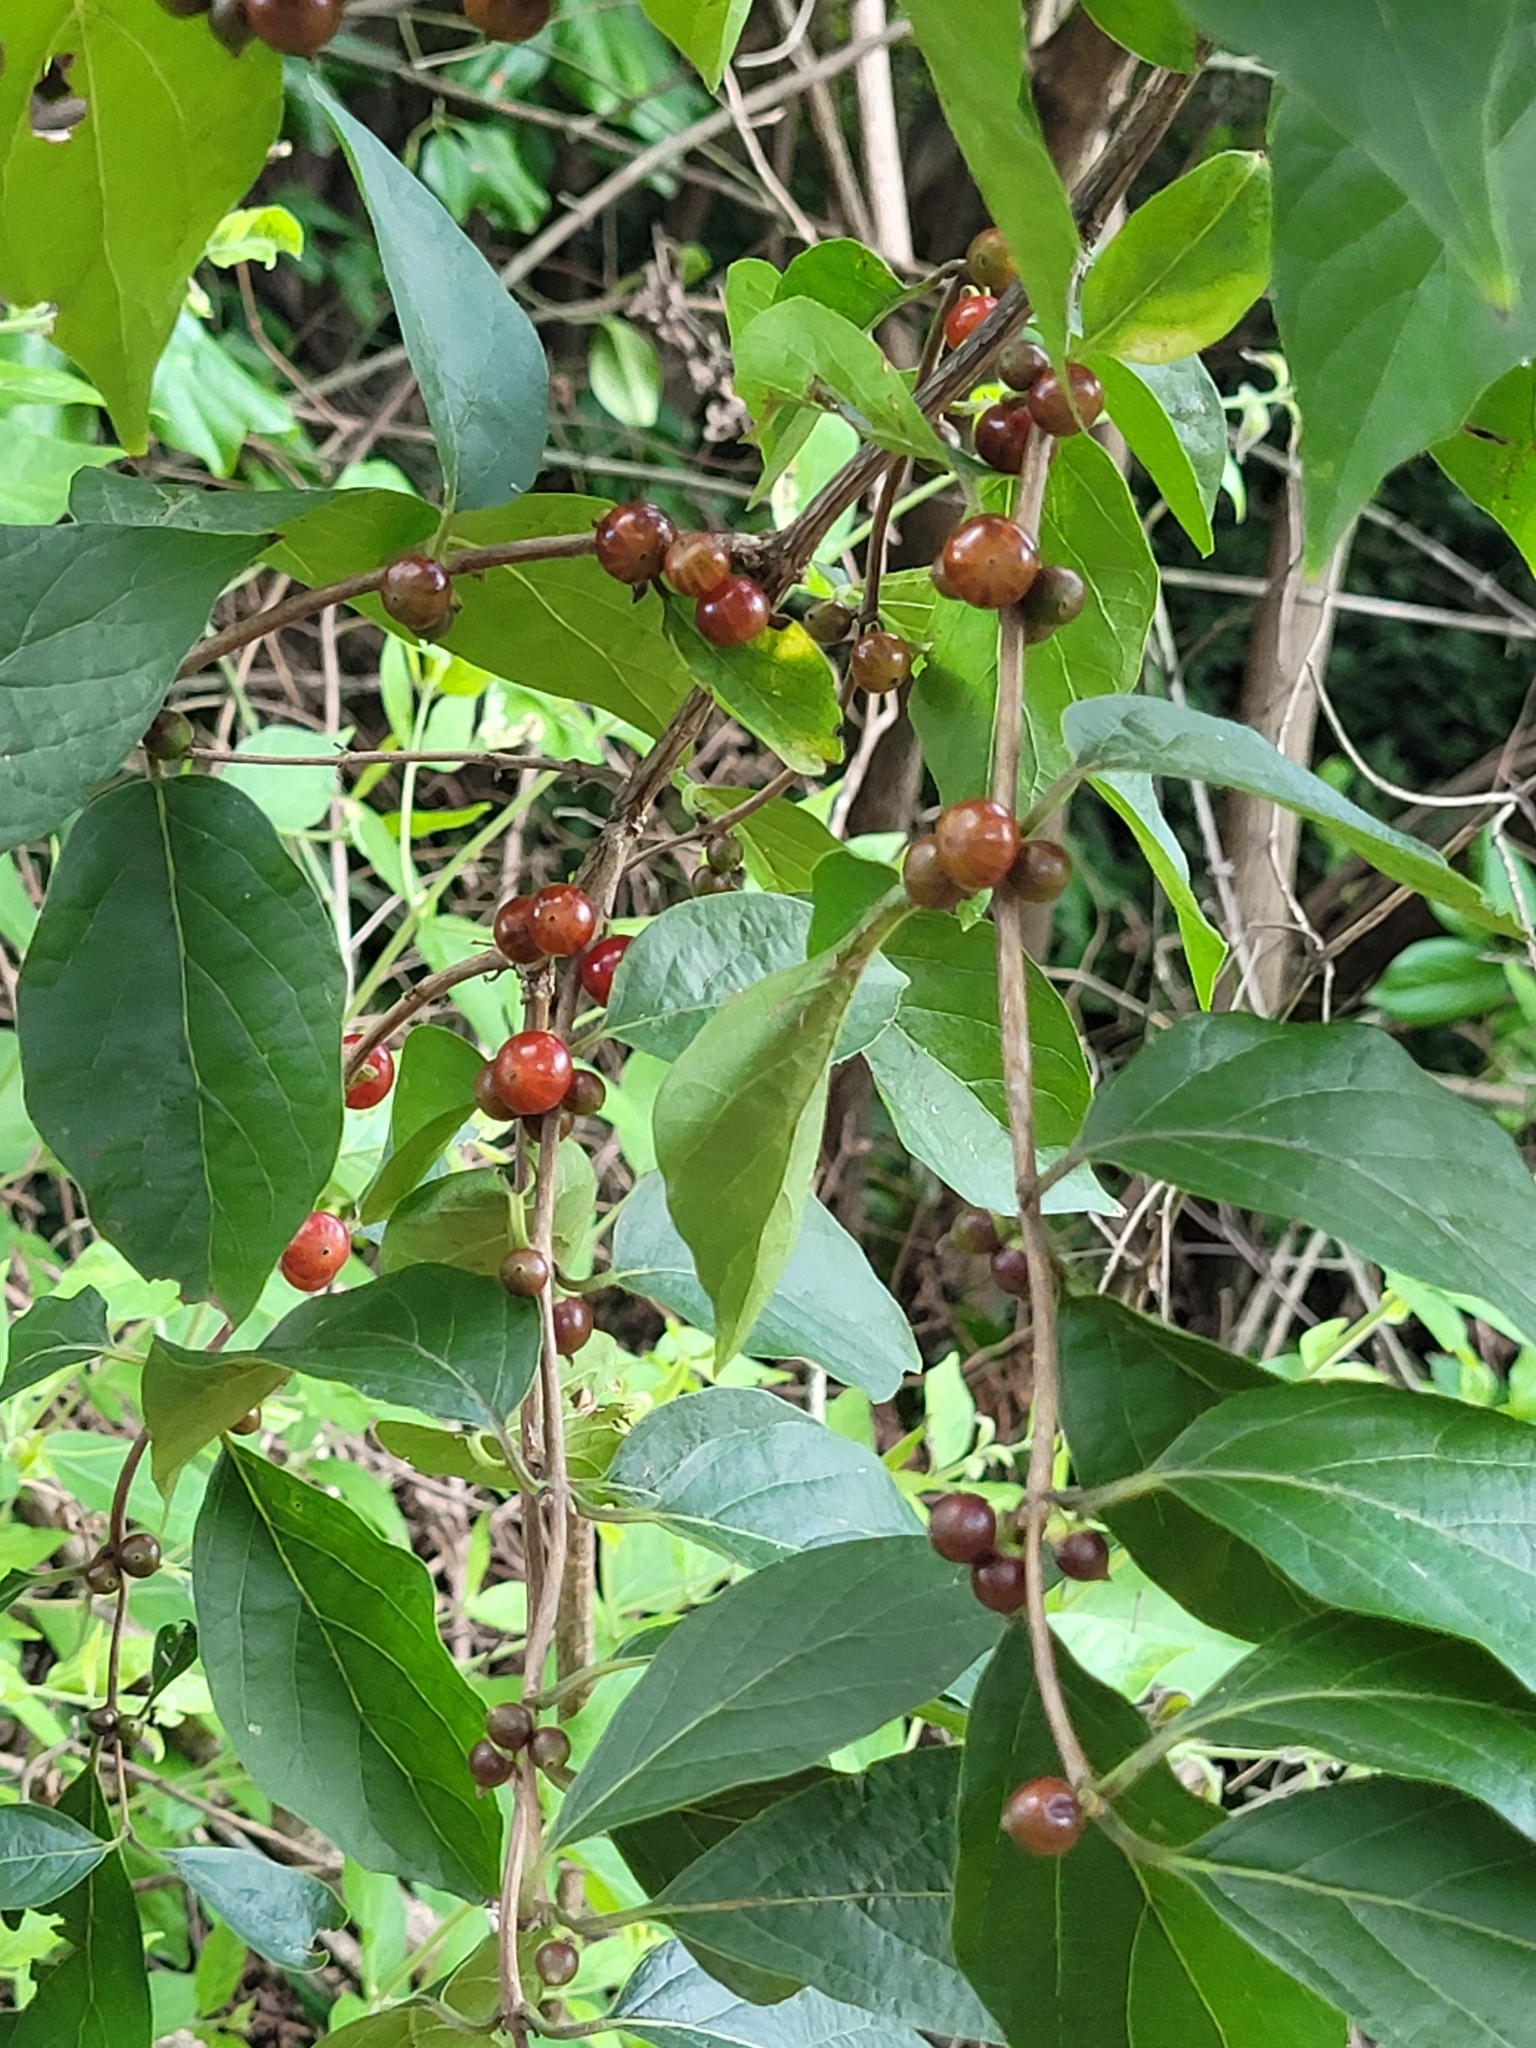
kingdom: Plantae
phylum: Tracheophyta
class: Magnoliopsida
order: Dipsacales
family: Caprifoliaceae
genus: Lonicera
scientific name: Lonicera maackii
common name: Amur honeysuckle
